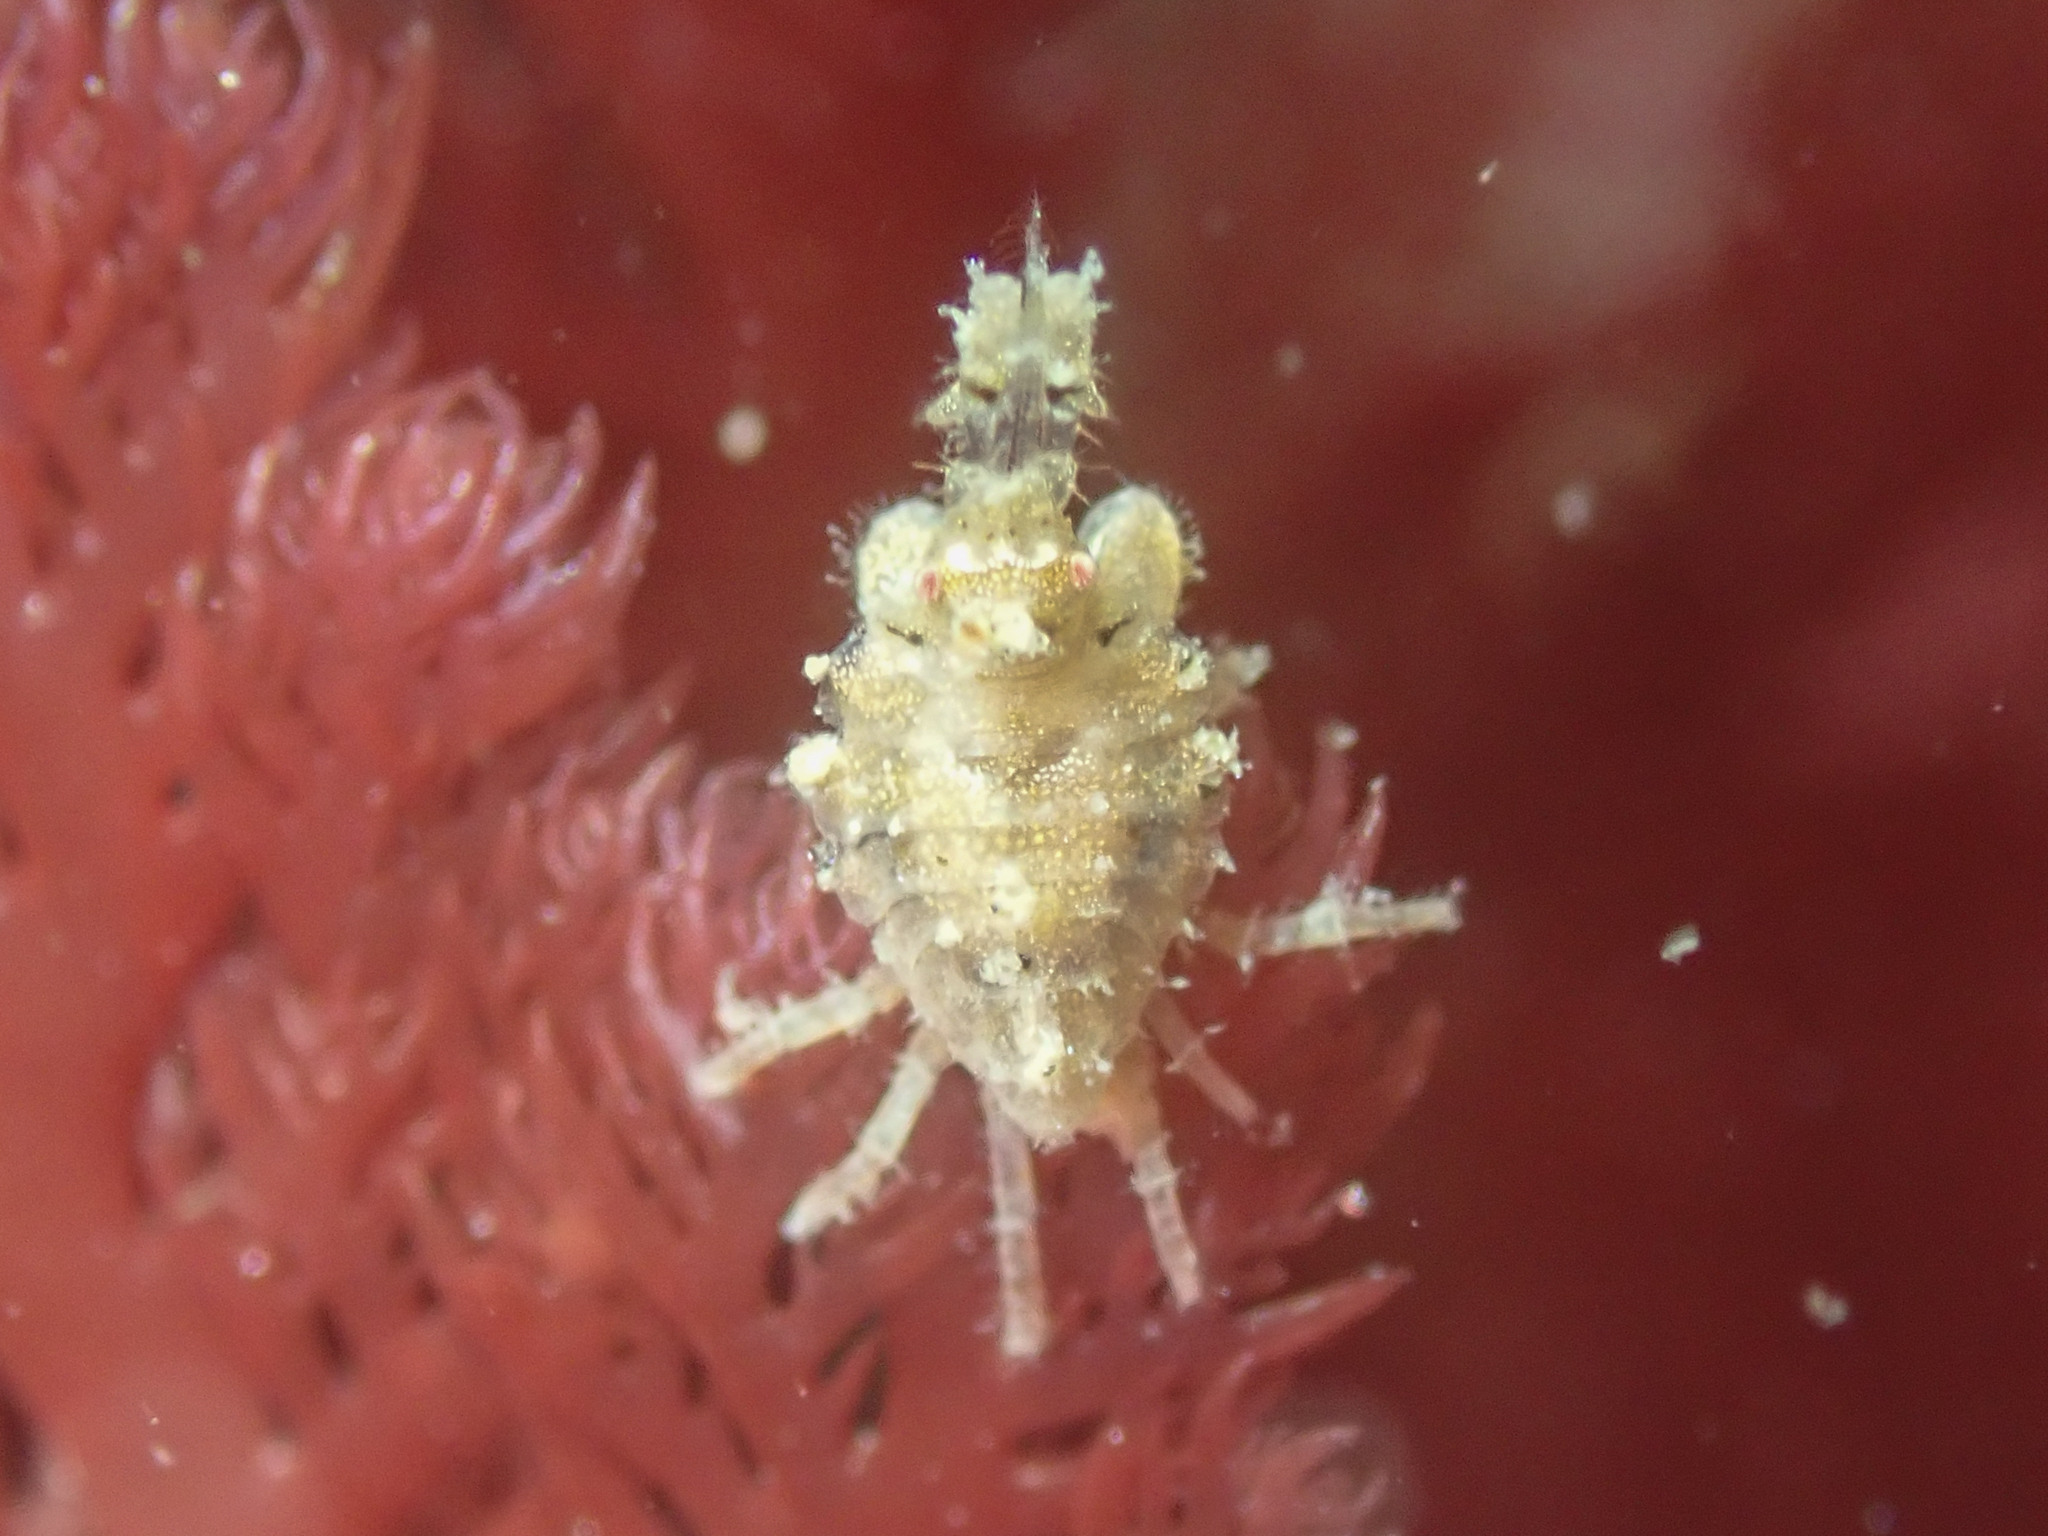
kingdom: Animalia
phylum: Arthropoda
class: Malacostraca
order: Amphipoda
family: Podoceridae
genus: Podocerus
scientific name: Podocerus cristatus
